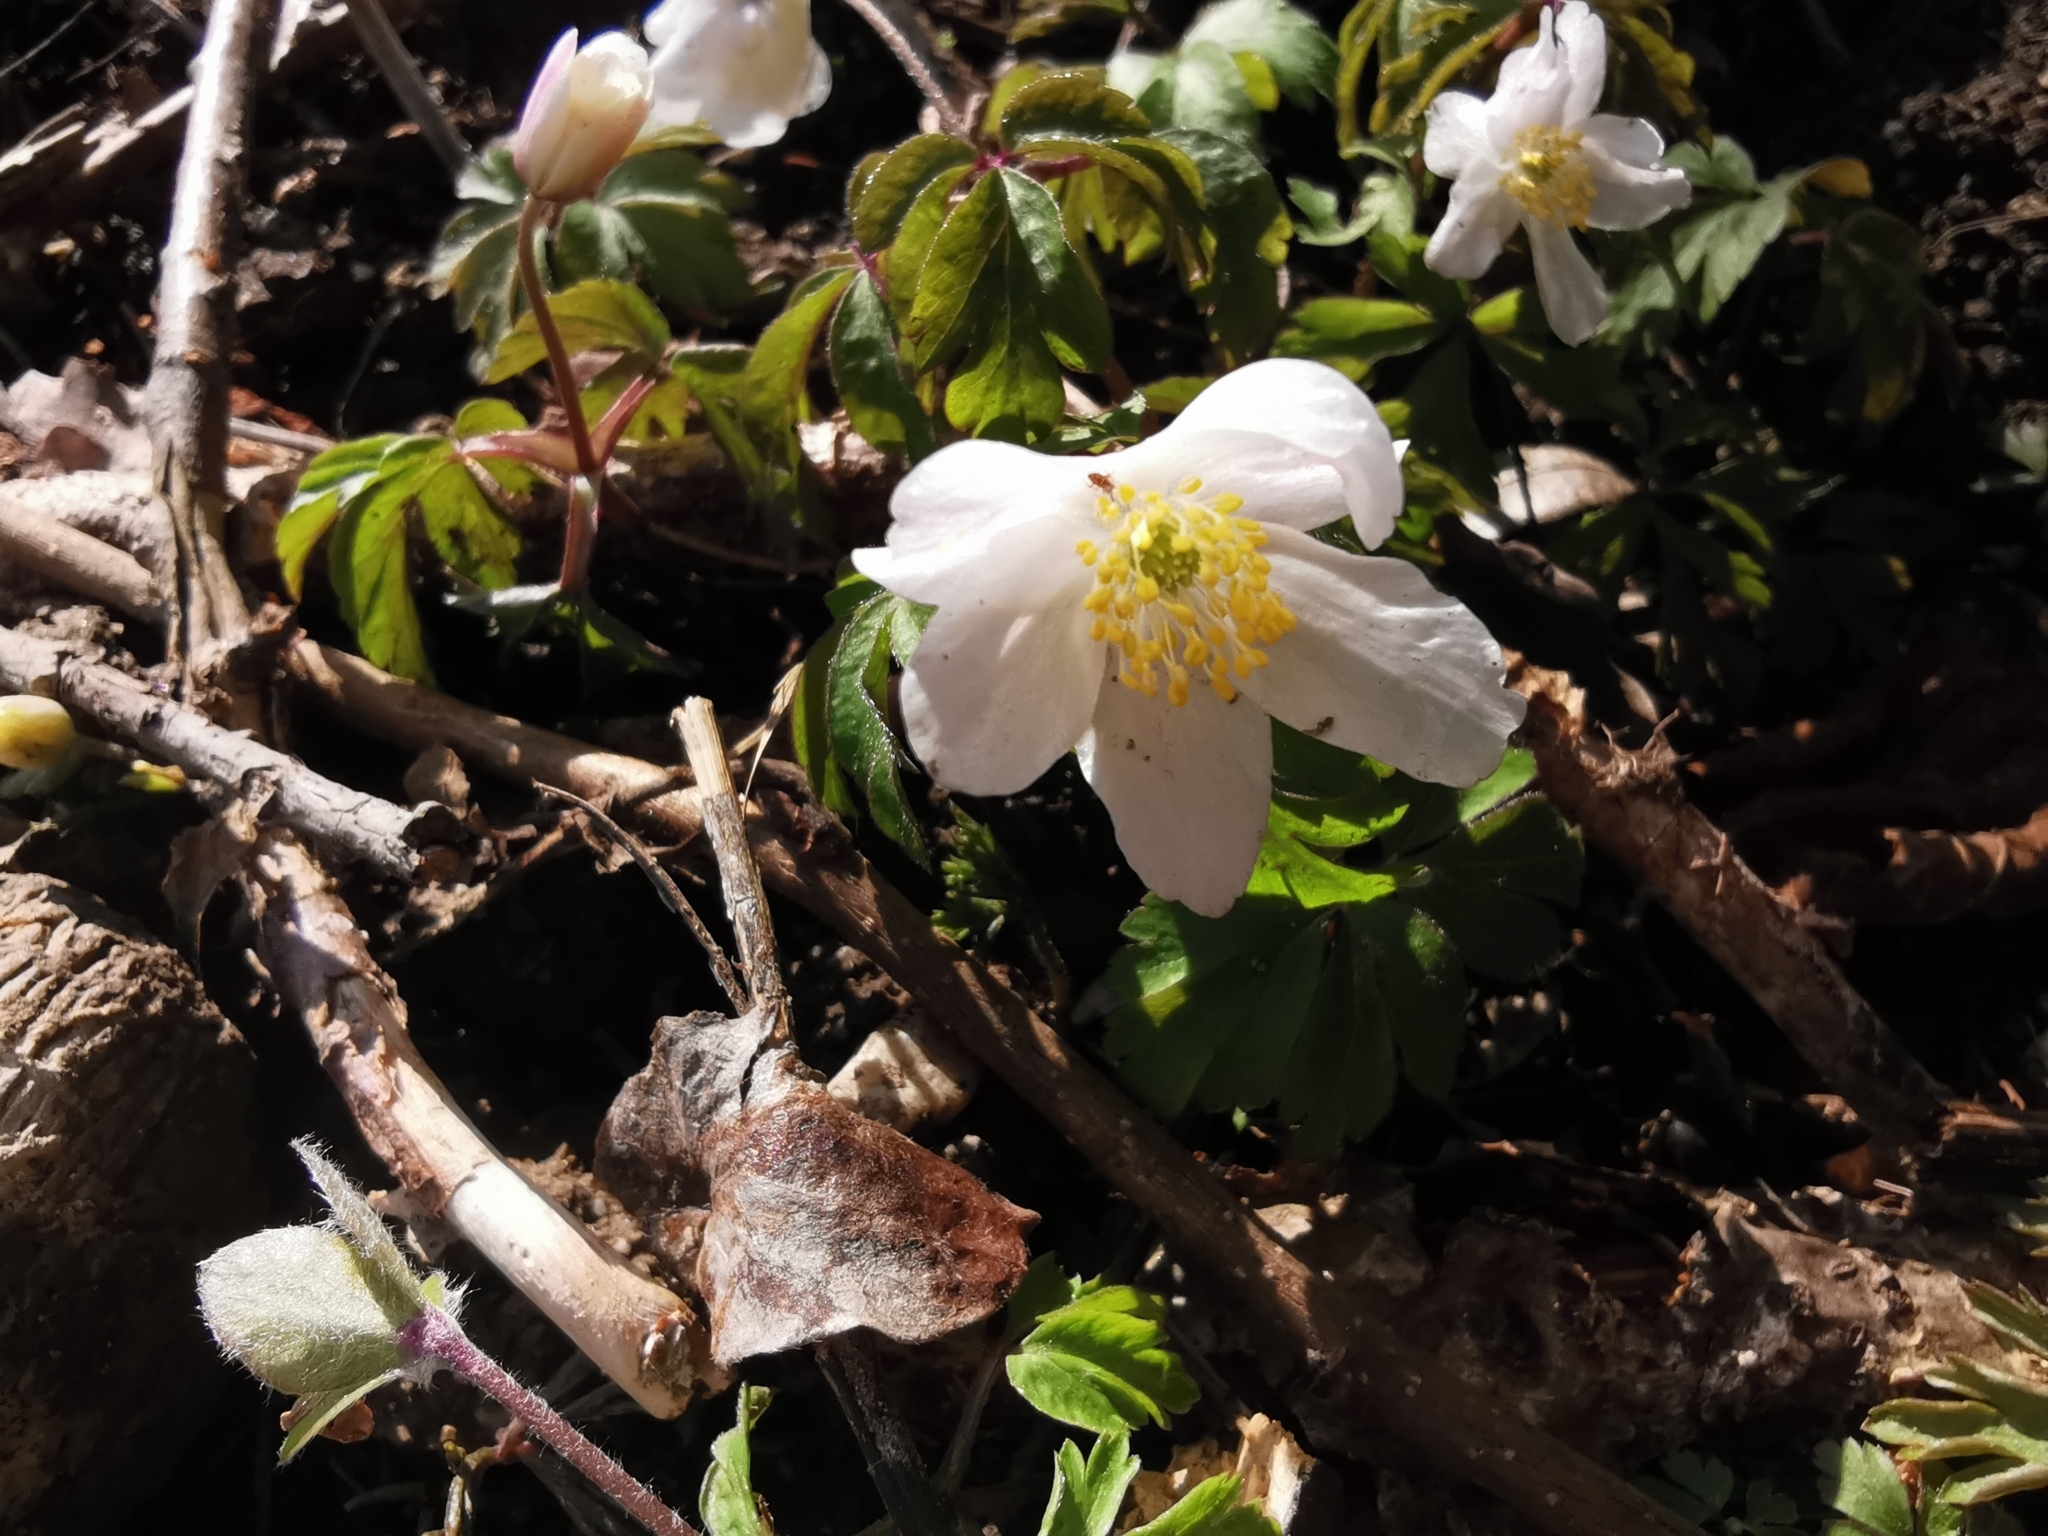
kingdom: Plantae
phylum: Tracheophyta
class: Magnoliopsida
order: Ranunculales
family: Ranunculaceae
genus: Anemone
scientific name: Anemone nemorosa
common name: Wood anemone
